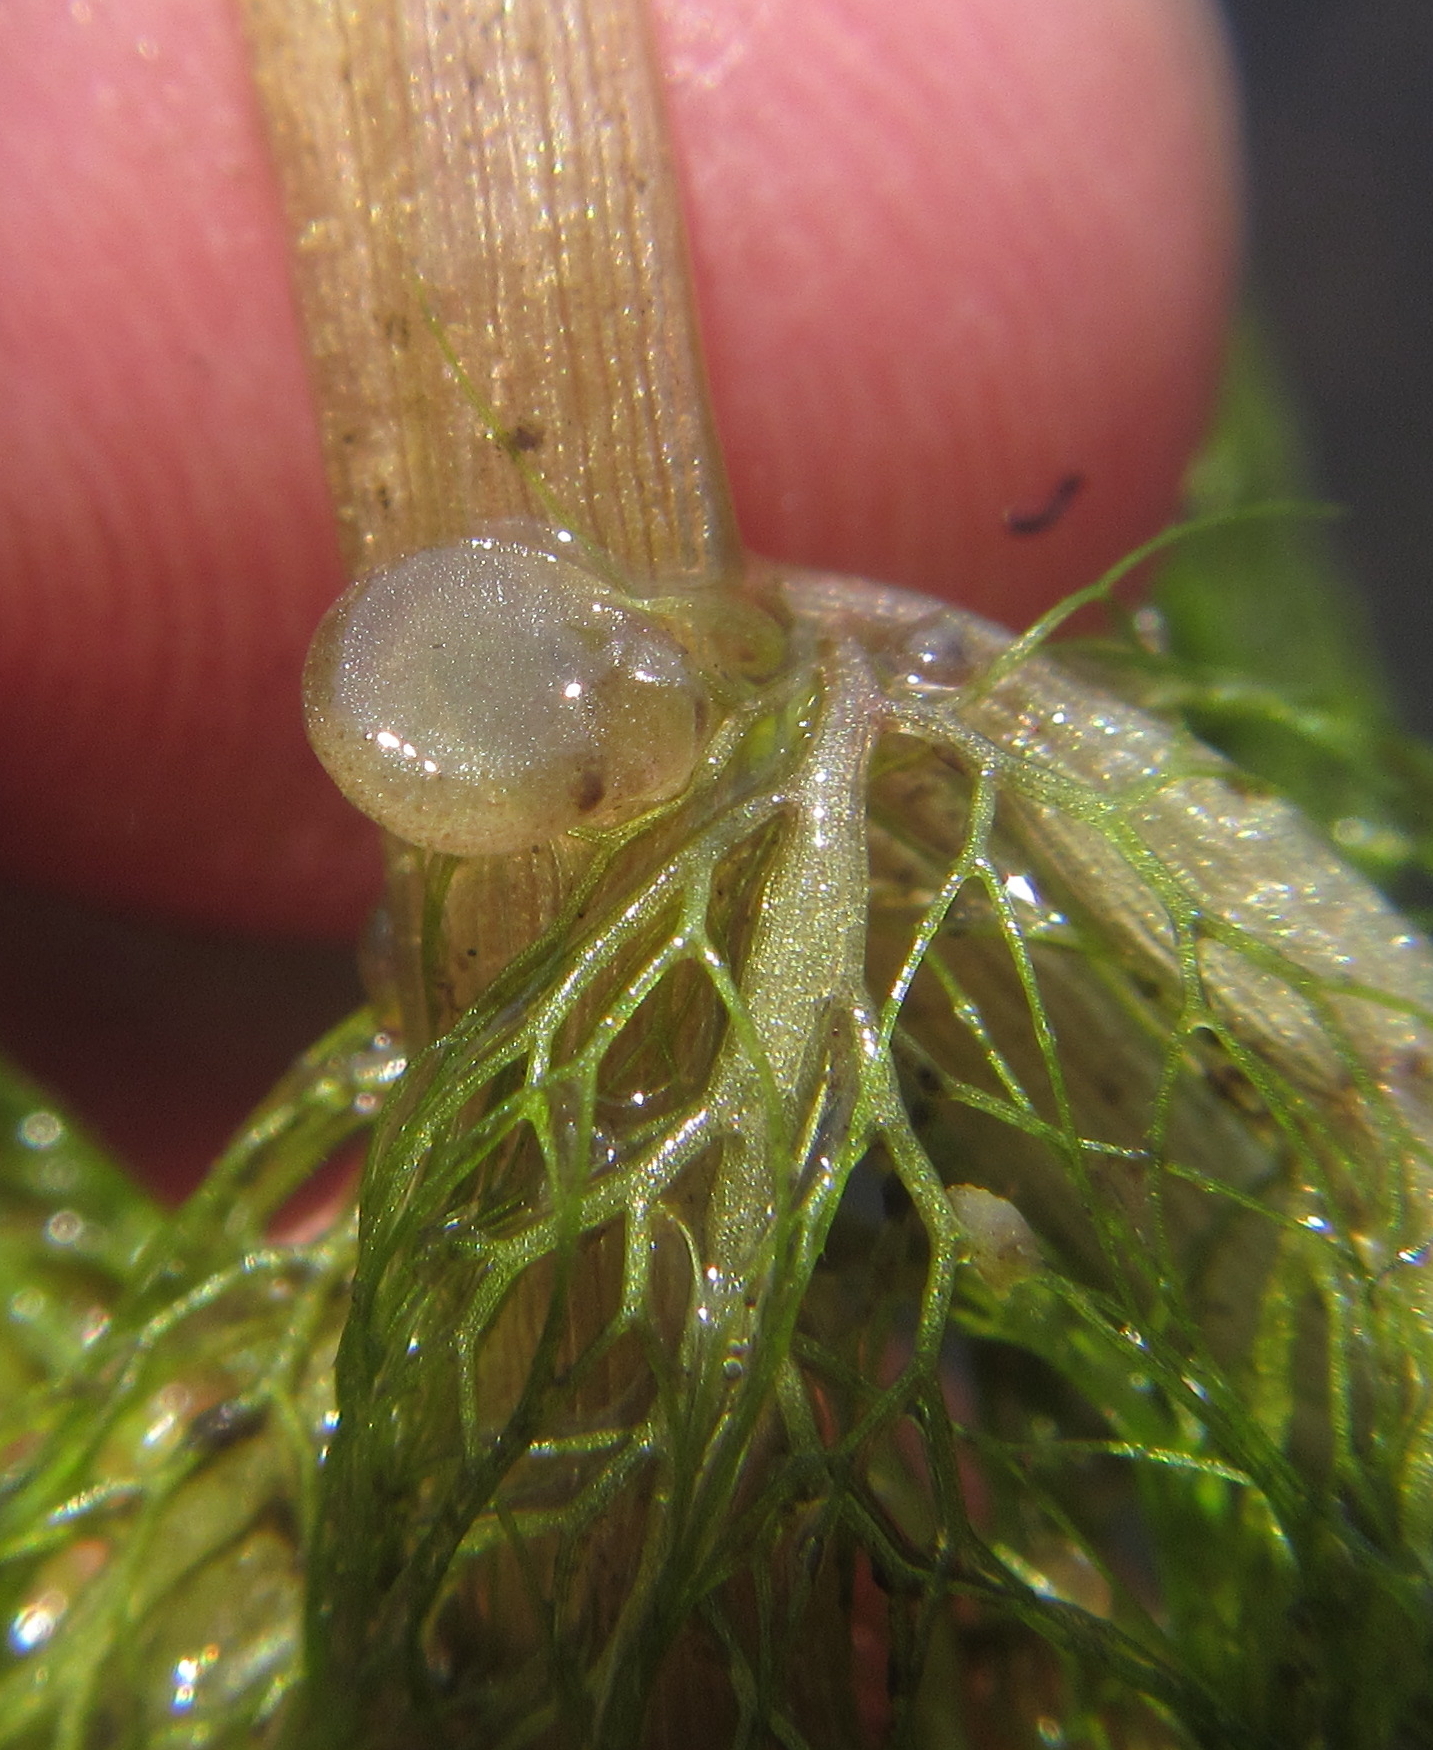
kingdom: Plantae
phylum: Tracheophyta
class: Magnoliopsida
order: Lamiales
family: Lentibulariaceae
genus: Utricularia
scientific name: Utricularia foliosa
